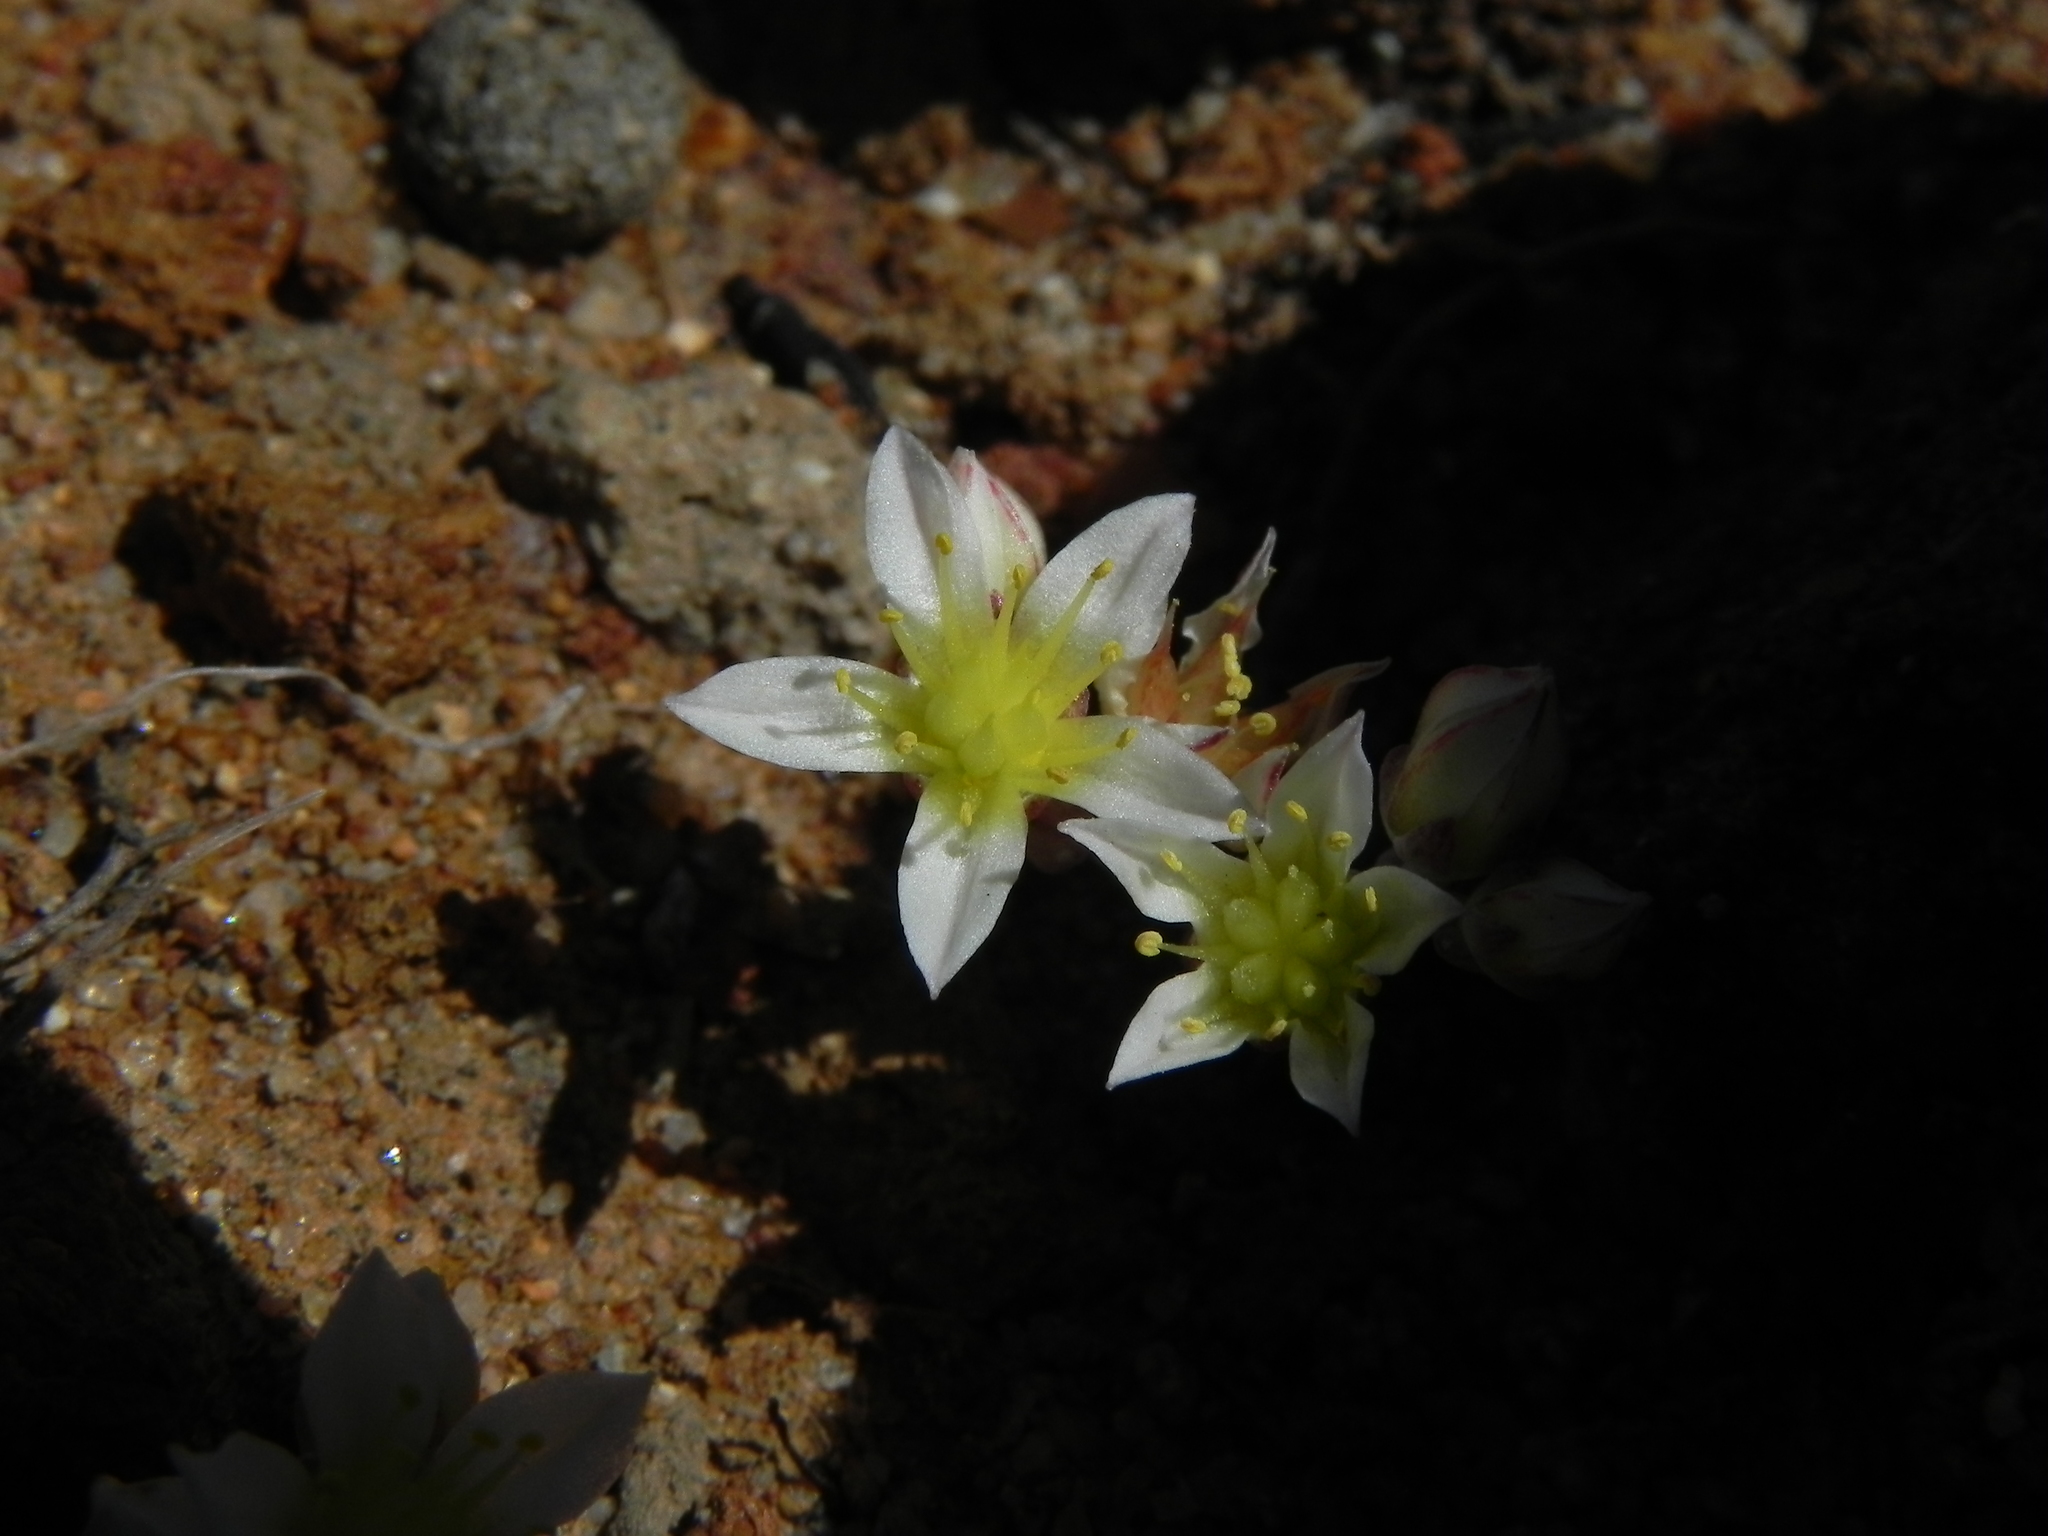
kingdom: Plantae
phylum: Tracheophyta
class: Magnoliopsida
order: Saxifragales
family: Crassulaceae
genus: Dudleya
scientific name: Dudleya blochmaniae
